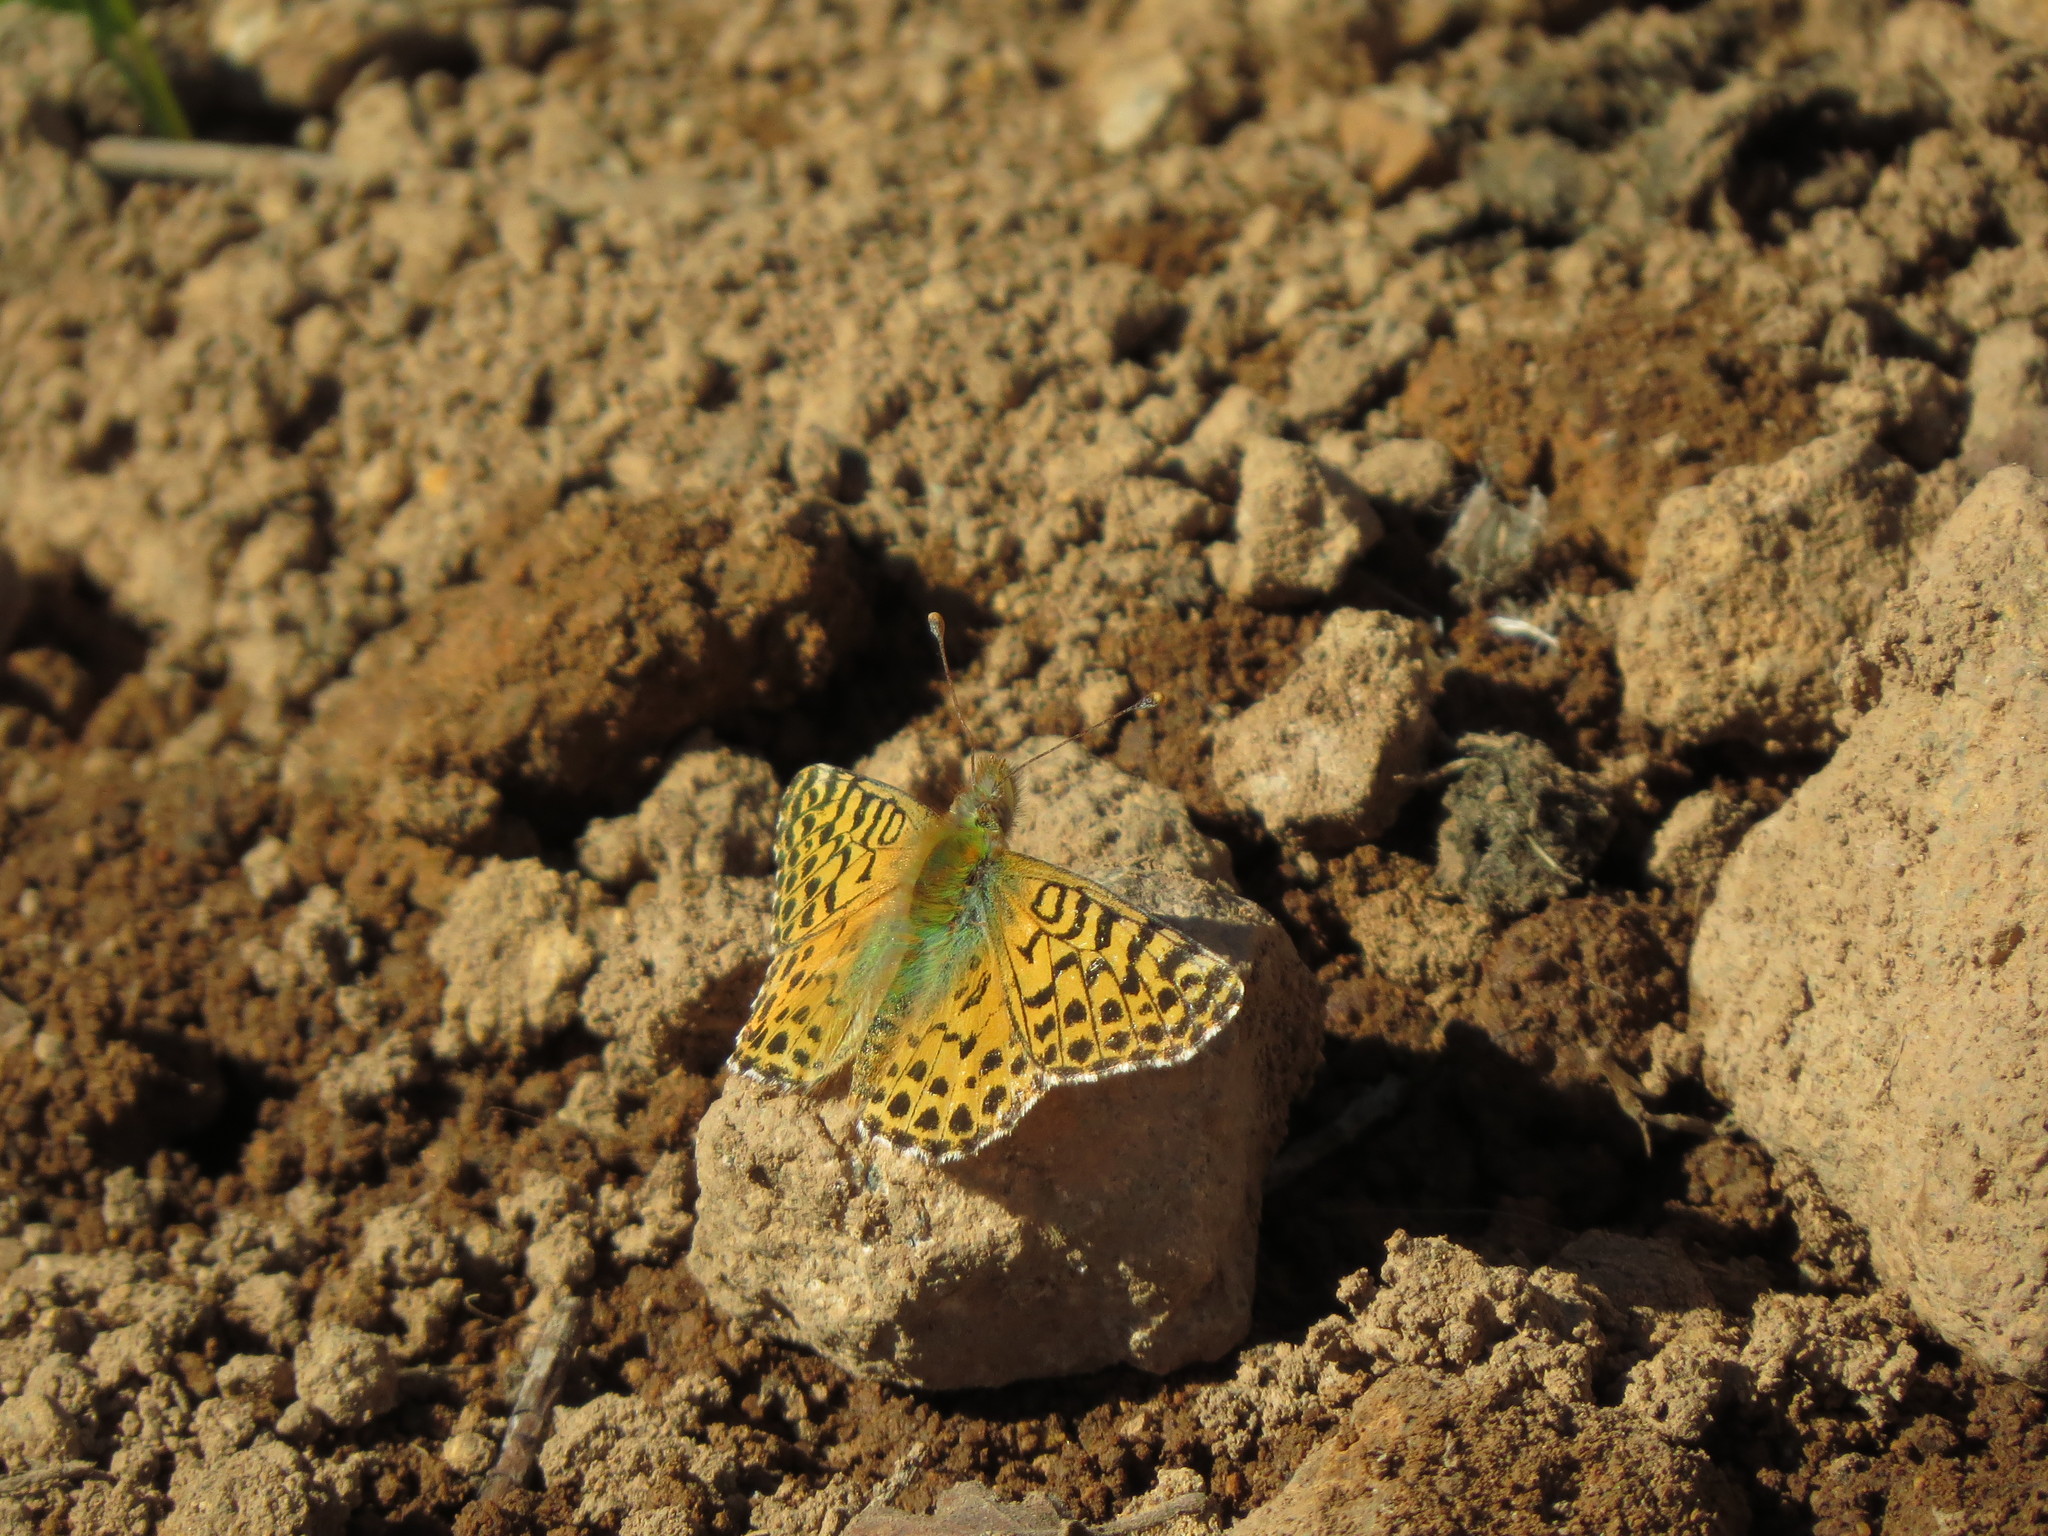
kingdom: Animalia
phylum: Arthropoda
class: Insecta
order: Lepidoptera
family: Nymphalidae
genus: Issoria
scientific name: Issoria Yramea cytheris
